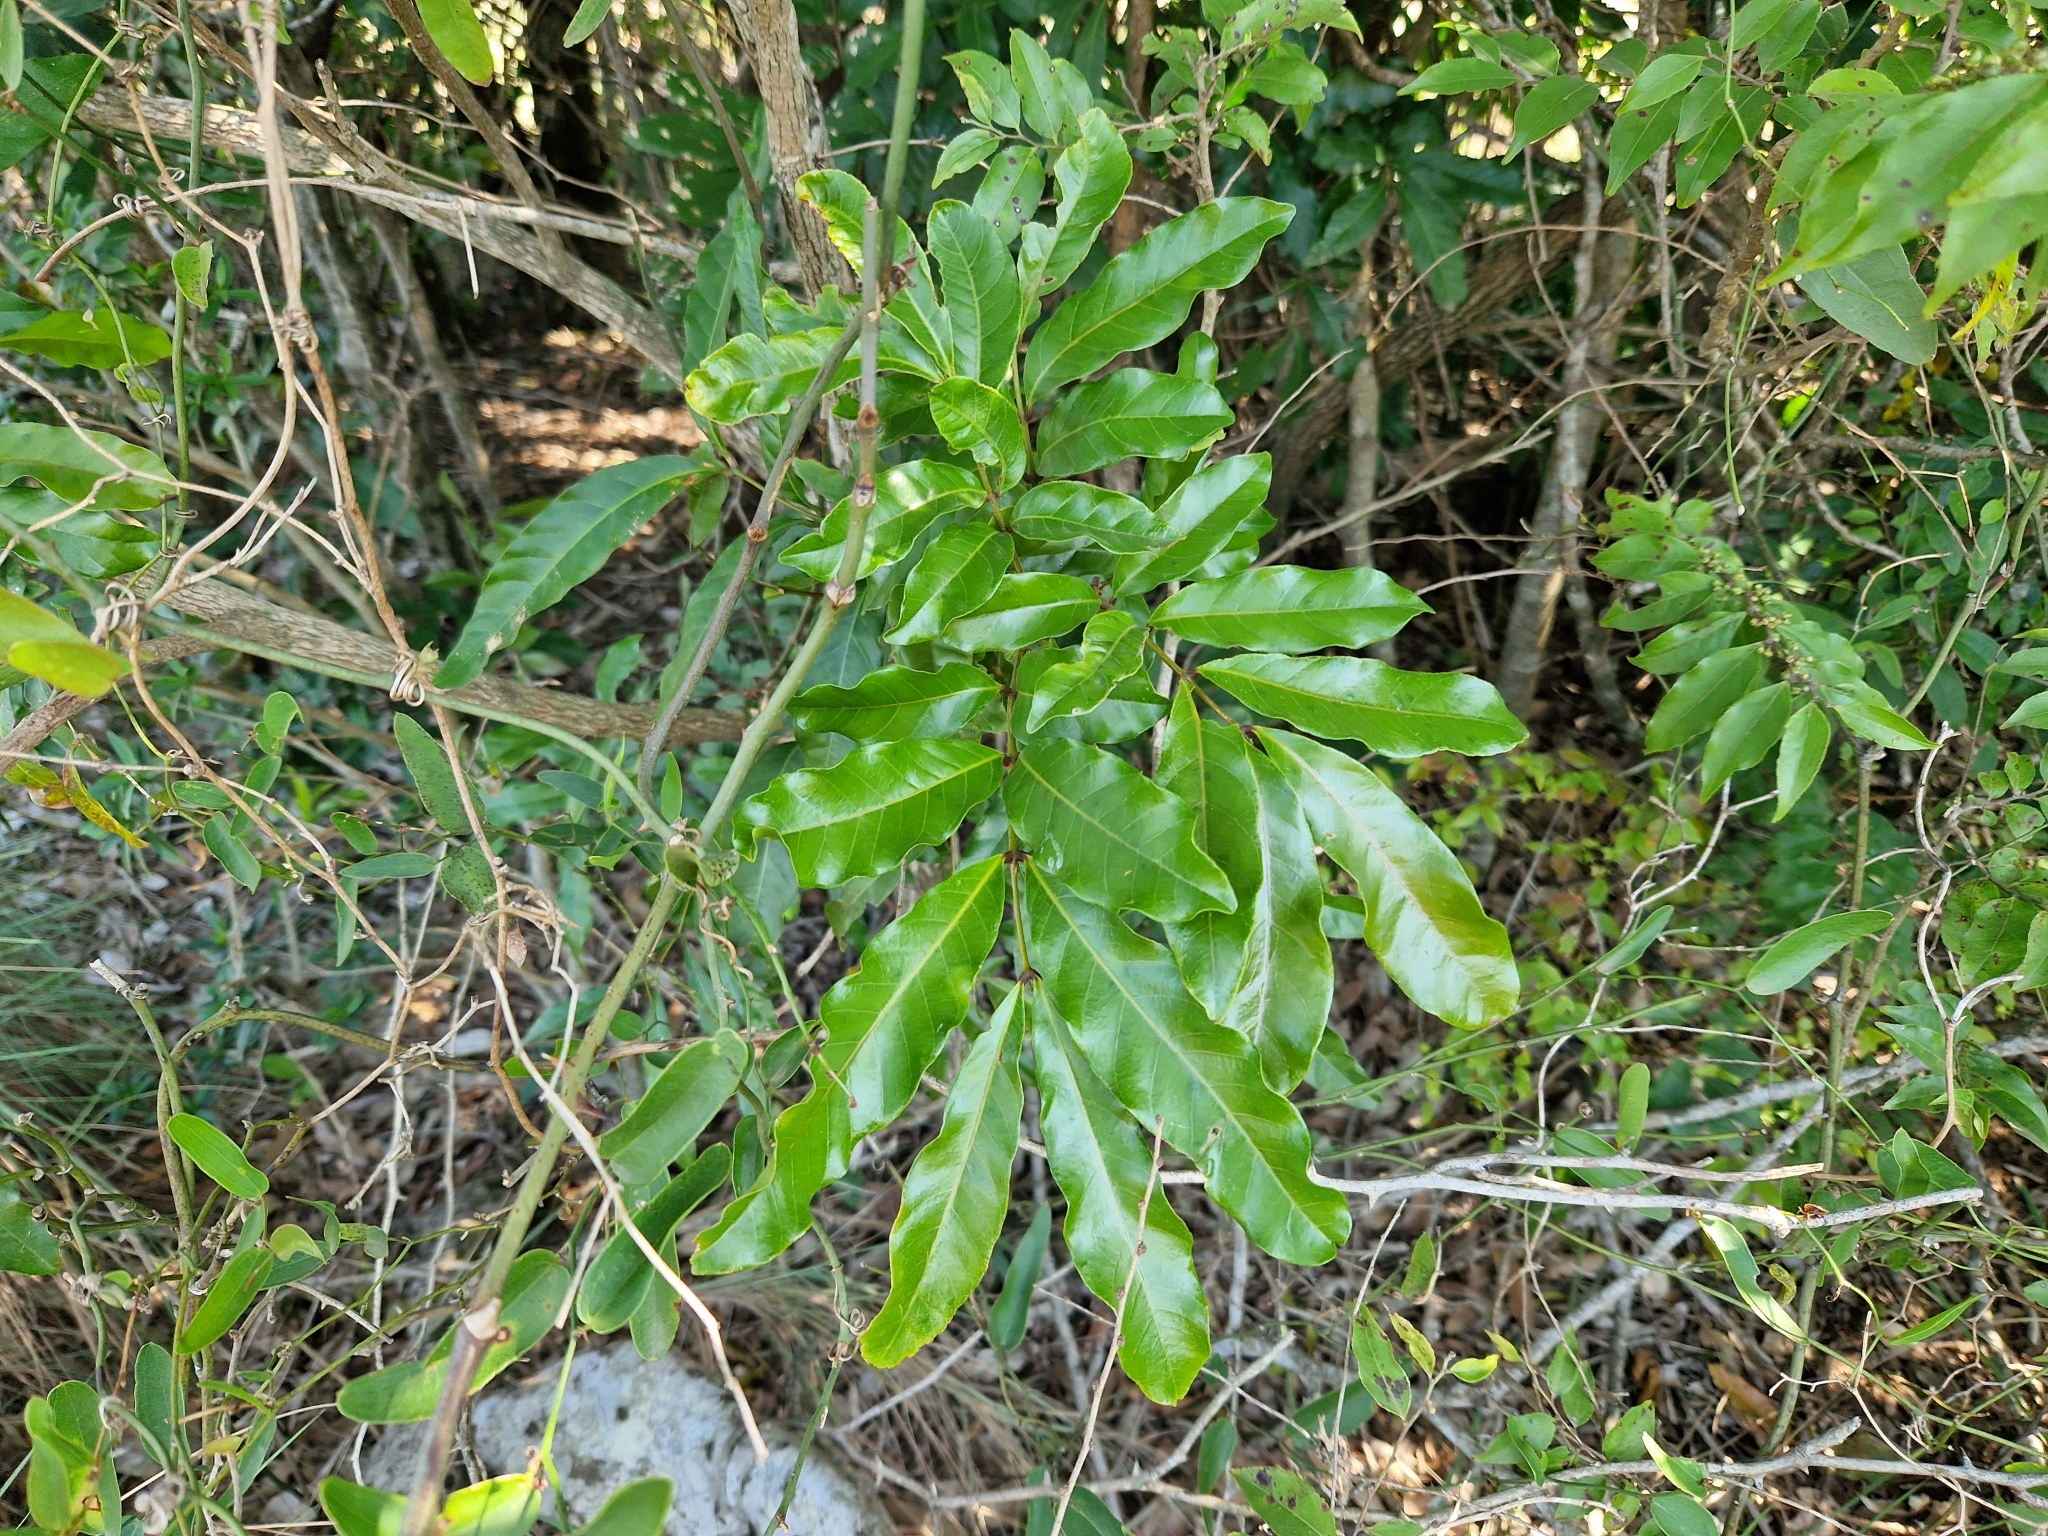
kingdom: Plantae
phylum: Tracheophyta
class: Magnoliopsida
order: Sapindales
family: Meliaceae
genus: Guarea
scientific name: Guarea macrophylla
